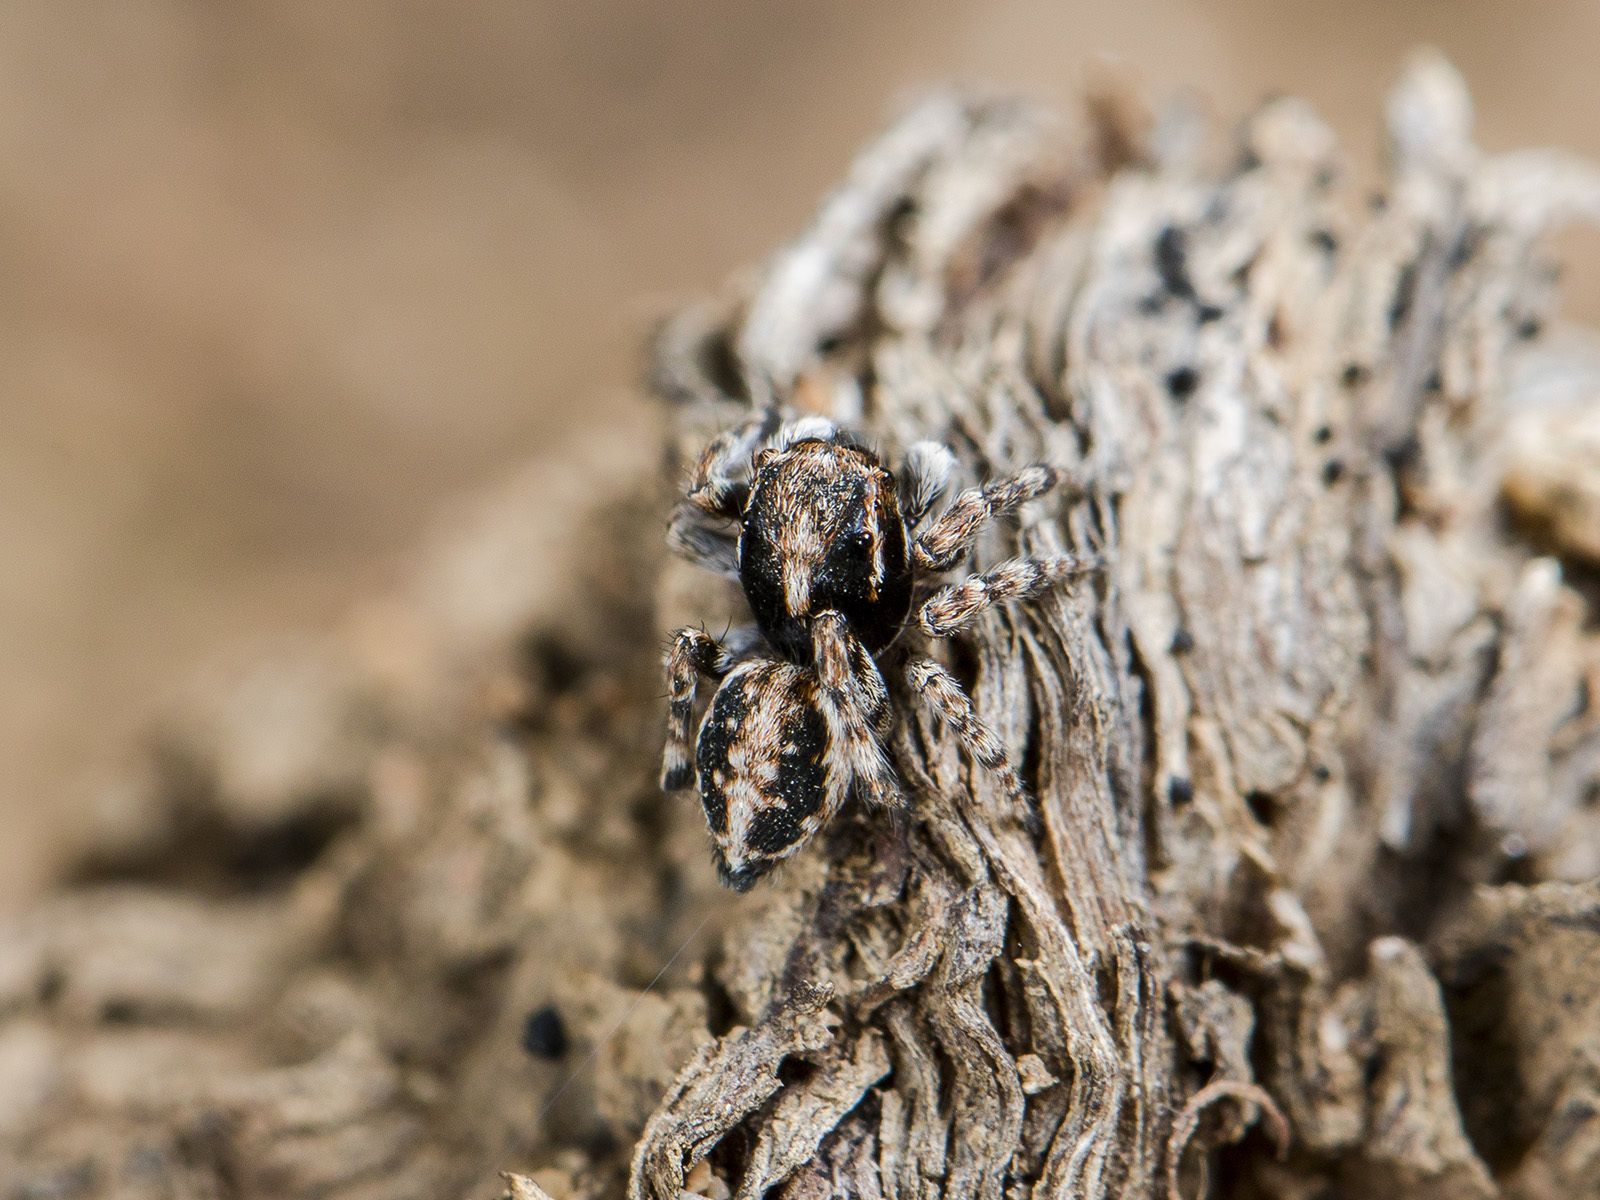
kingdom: Animalia
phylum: Arthropoda
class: Arachnida
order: Araneae
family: Salticidae
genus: Attulus
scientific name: Attulus distinguendus
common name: Distinguished jumper
